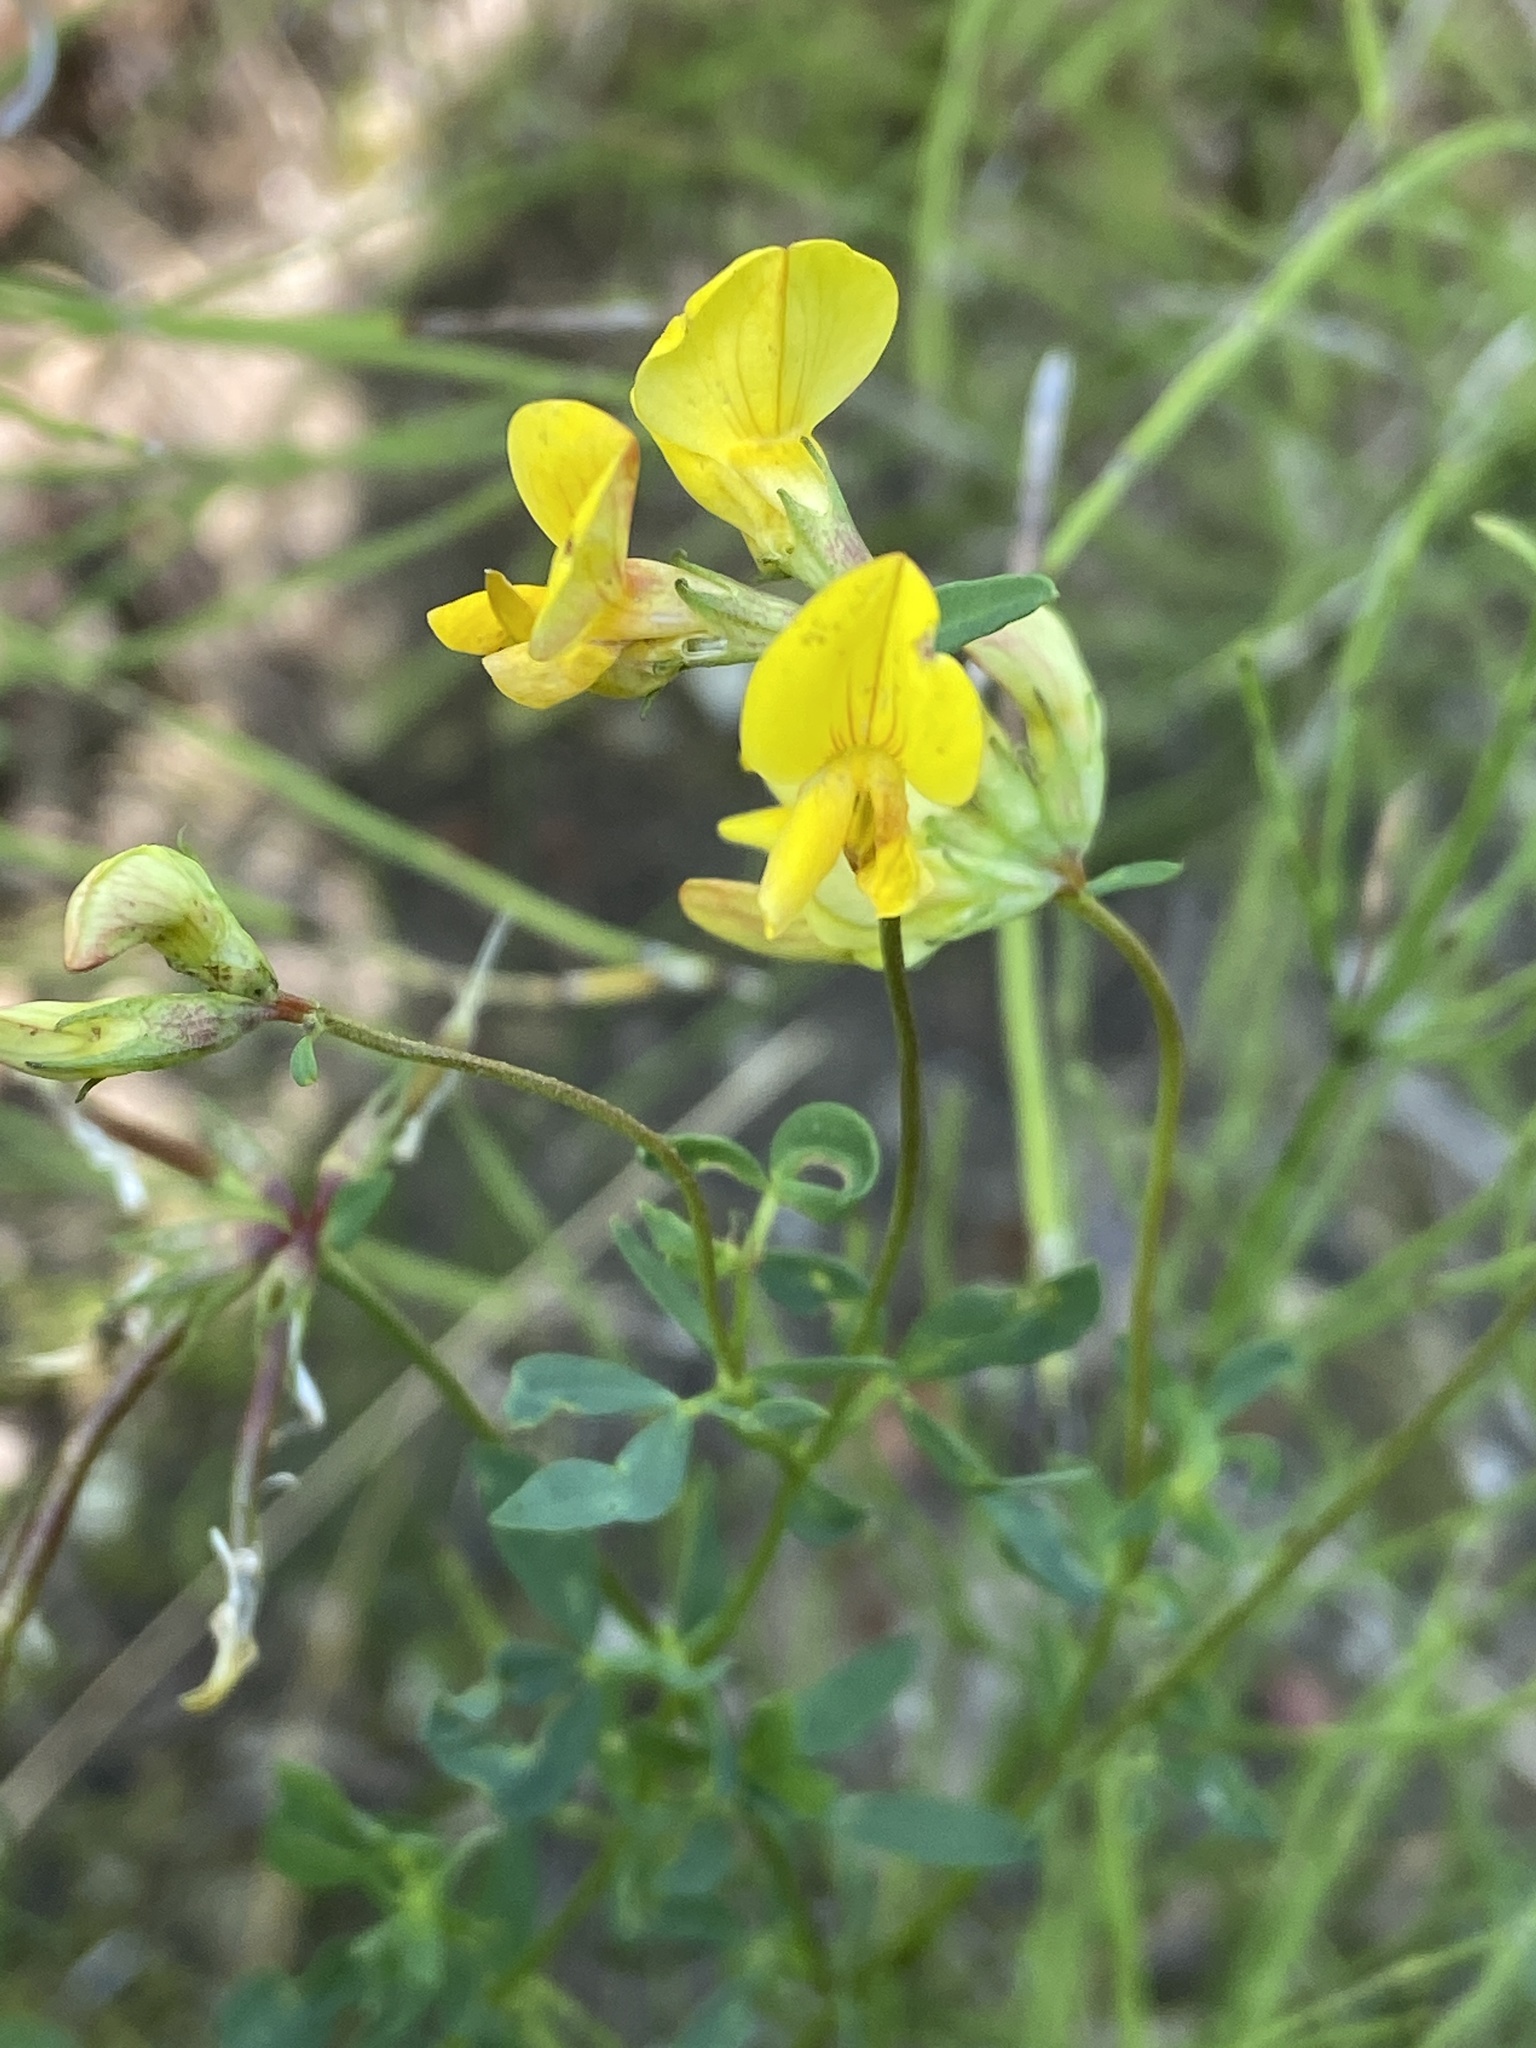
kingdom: Plantae
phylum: Tracheophyta
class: Magnoliopsida
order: Fabales
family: Fabaceae
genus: Lotus
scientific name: Lotus corniculatus
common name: Common bird's-foot-trefoil
